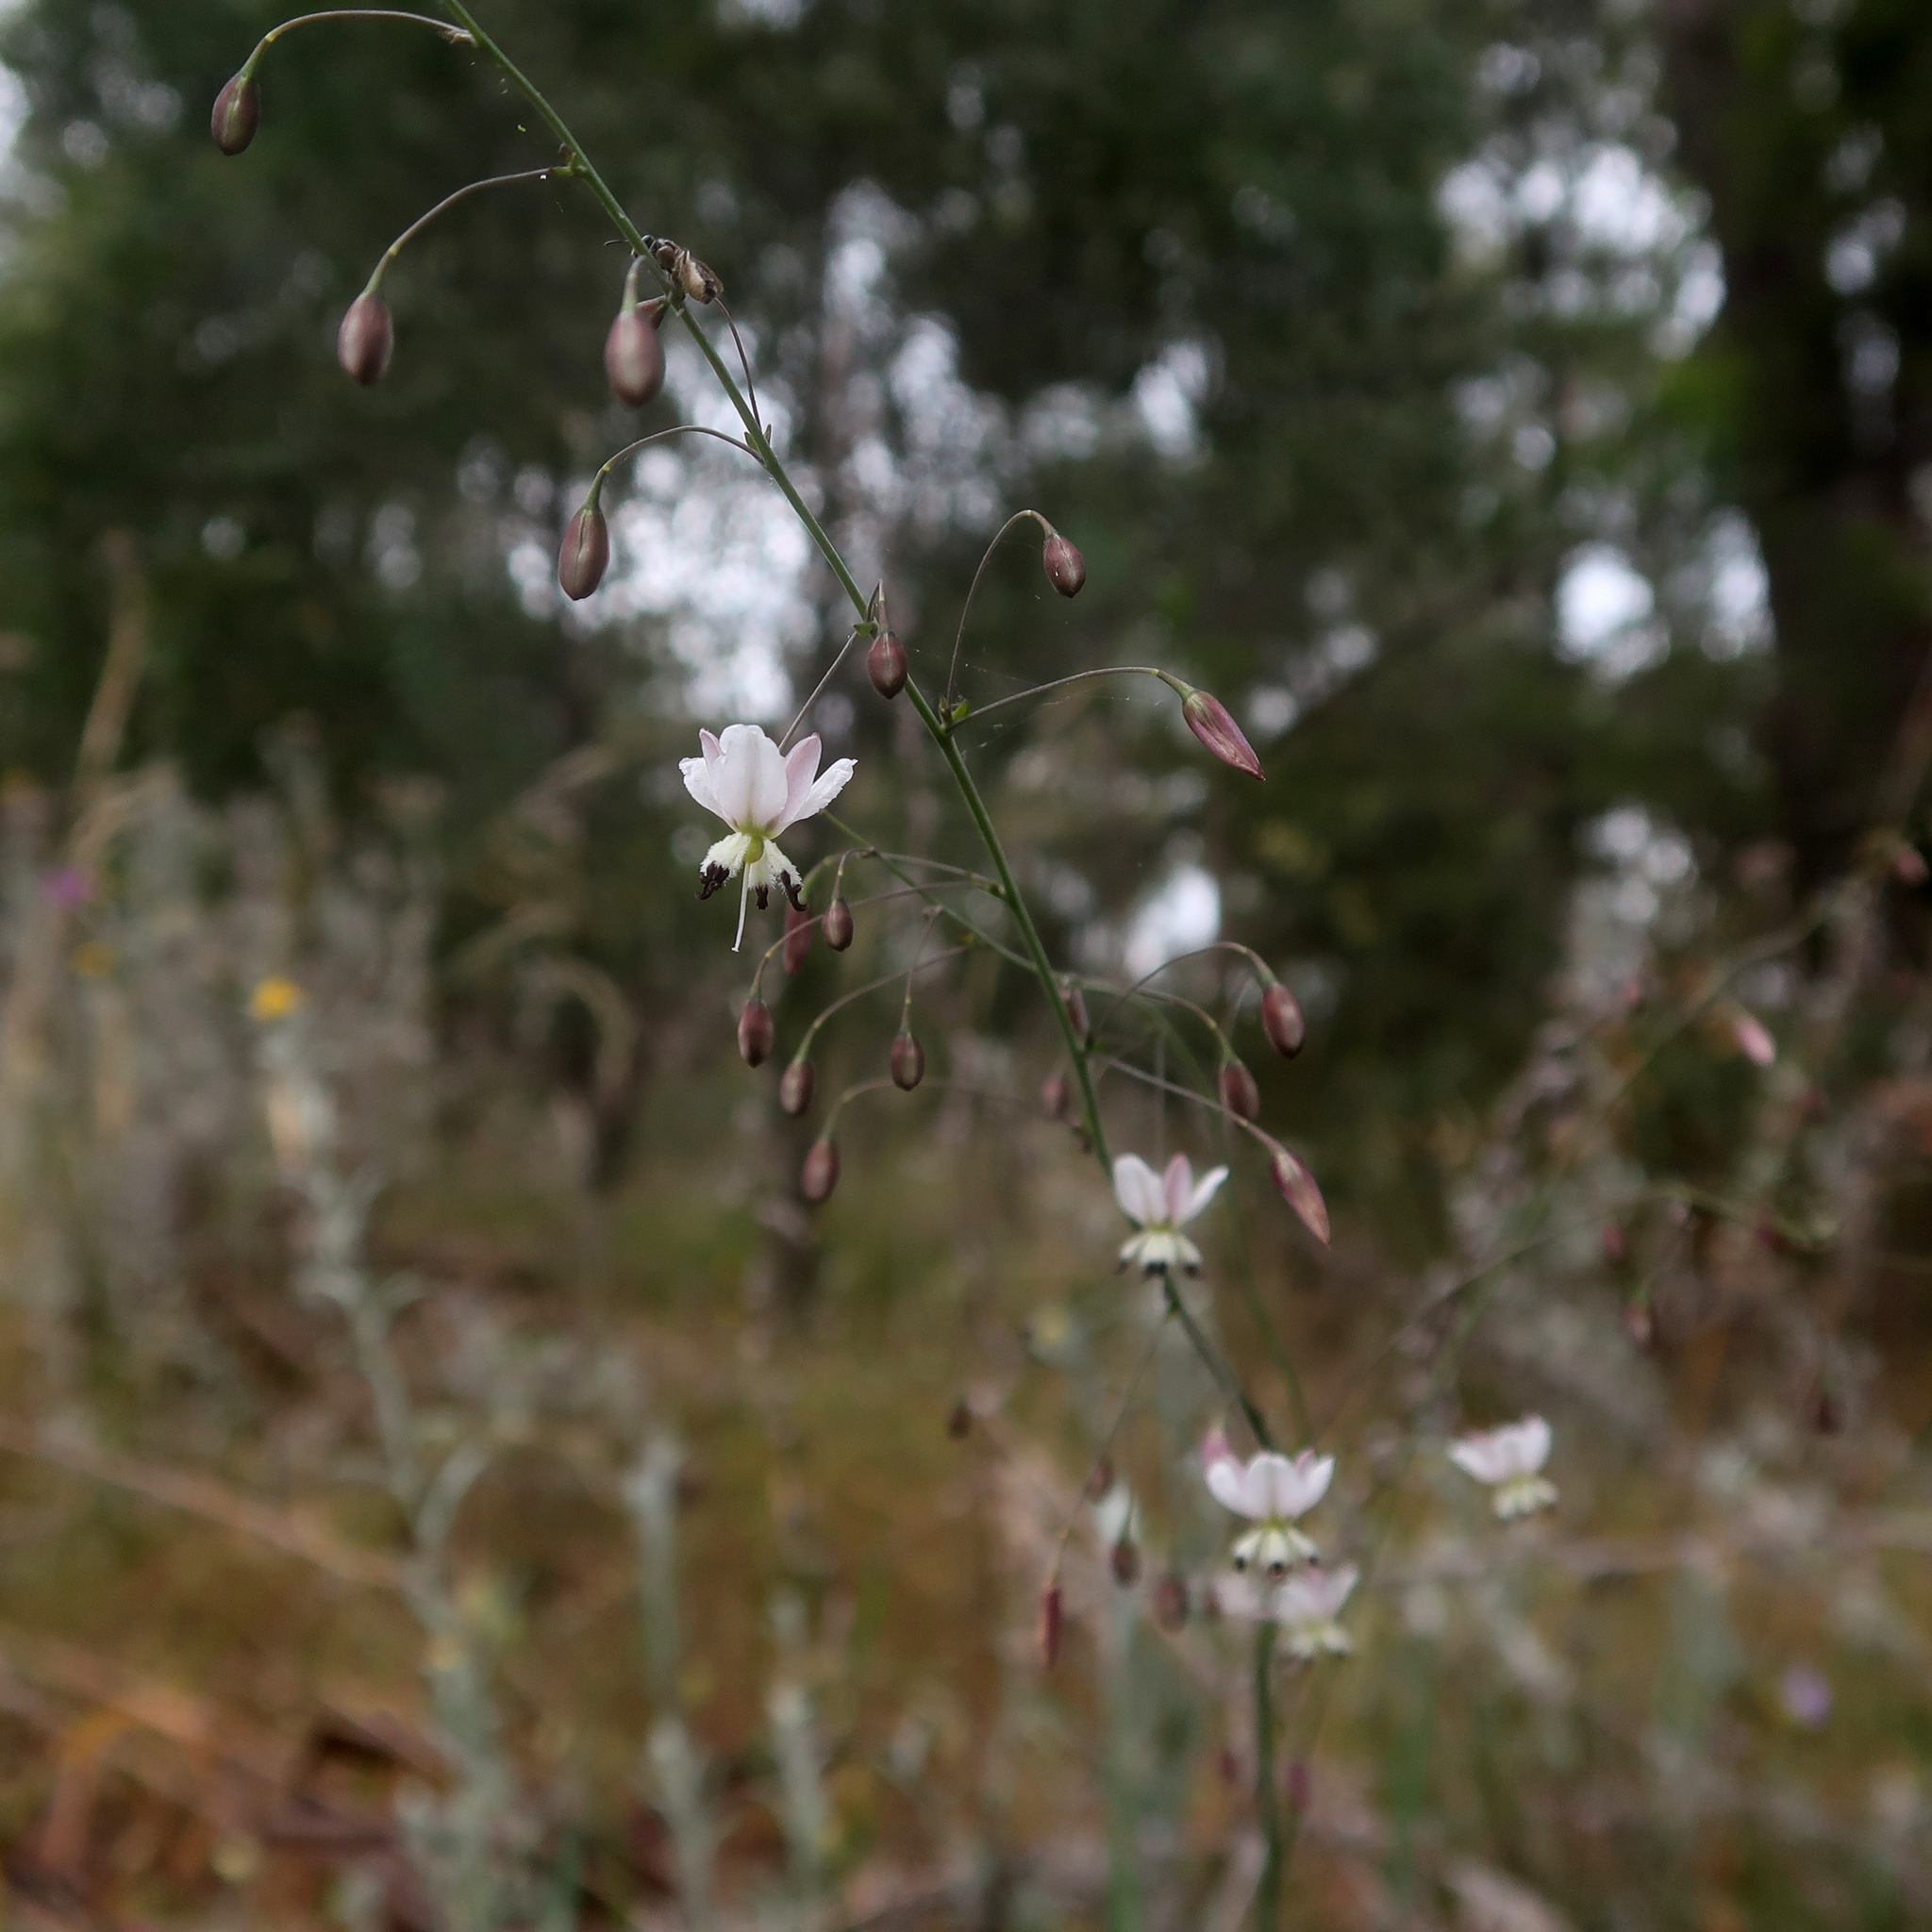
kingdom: Plantae
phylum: Tracheophyta
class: Liliopsida
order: Asparagales
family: Asparagaceae
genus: Arthropodium
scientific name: Arthropodium milleflorum
